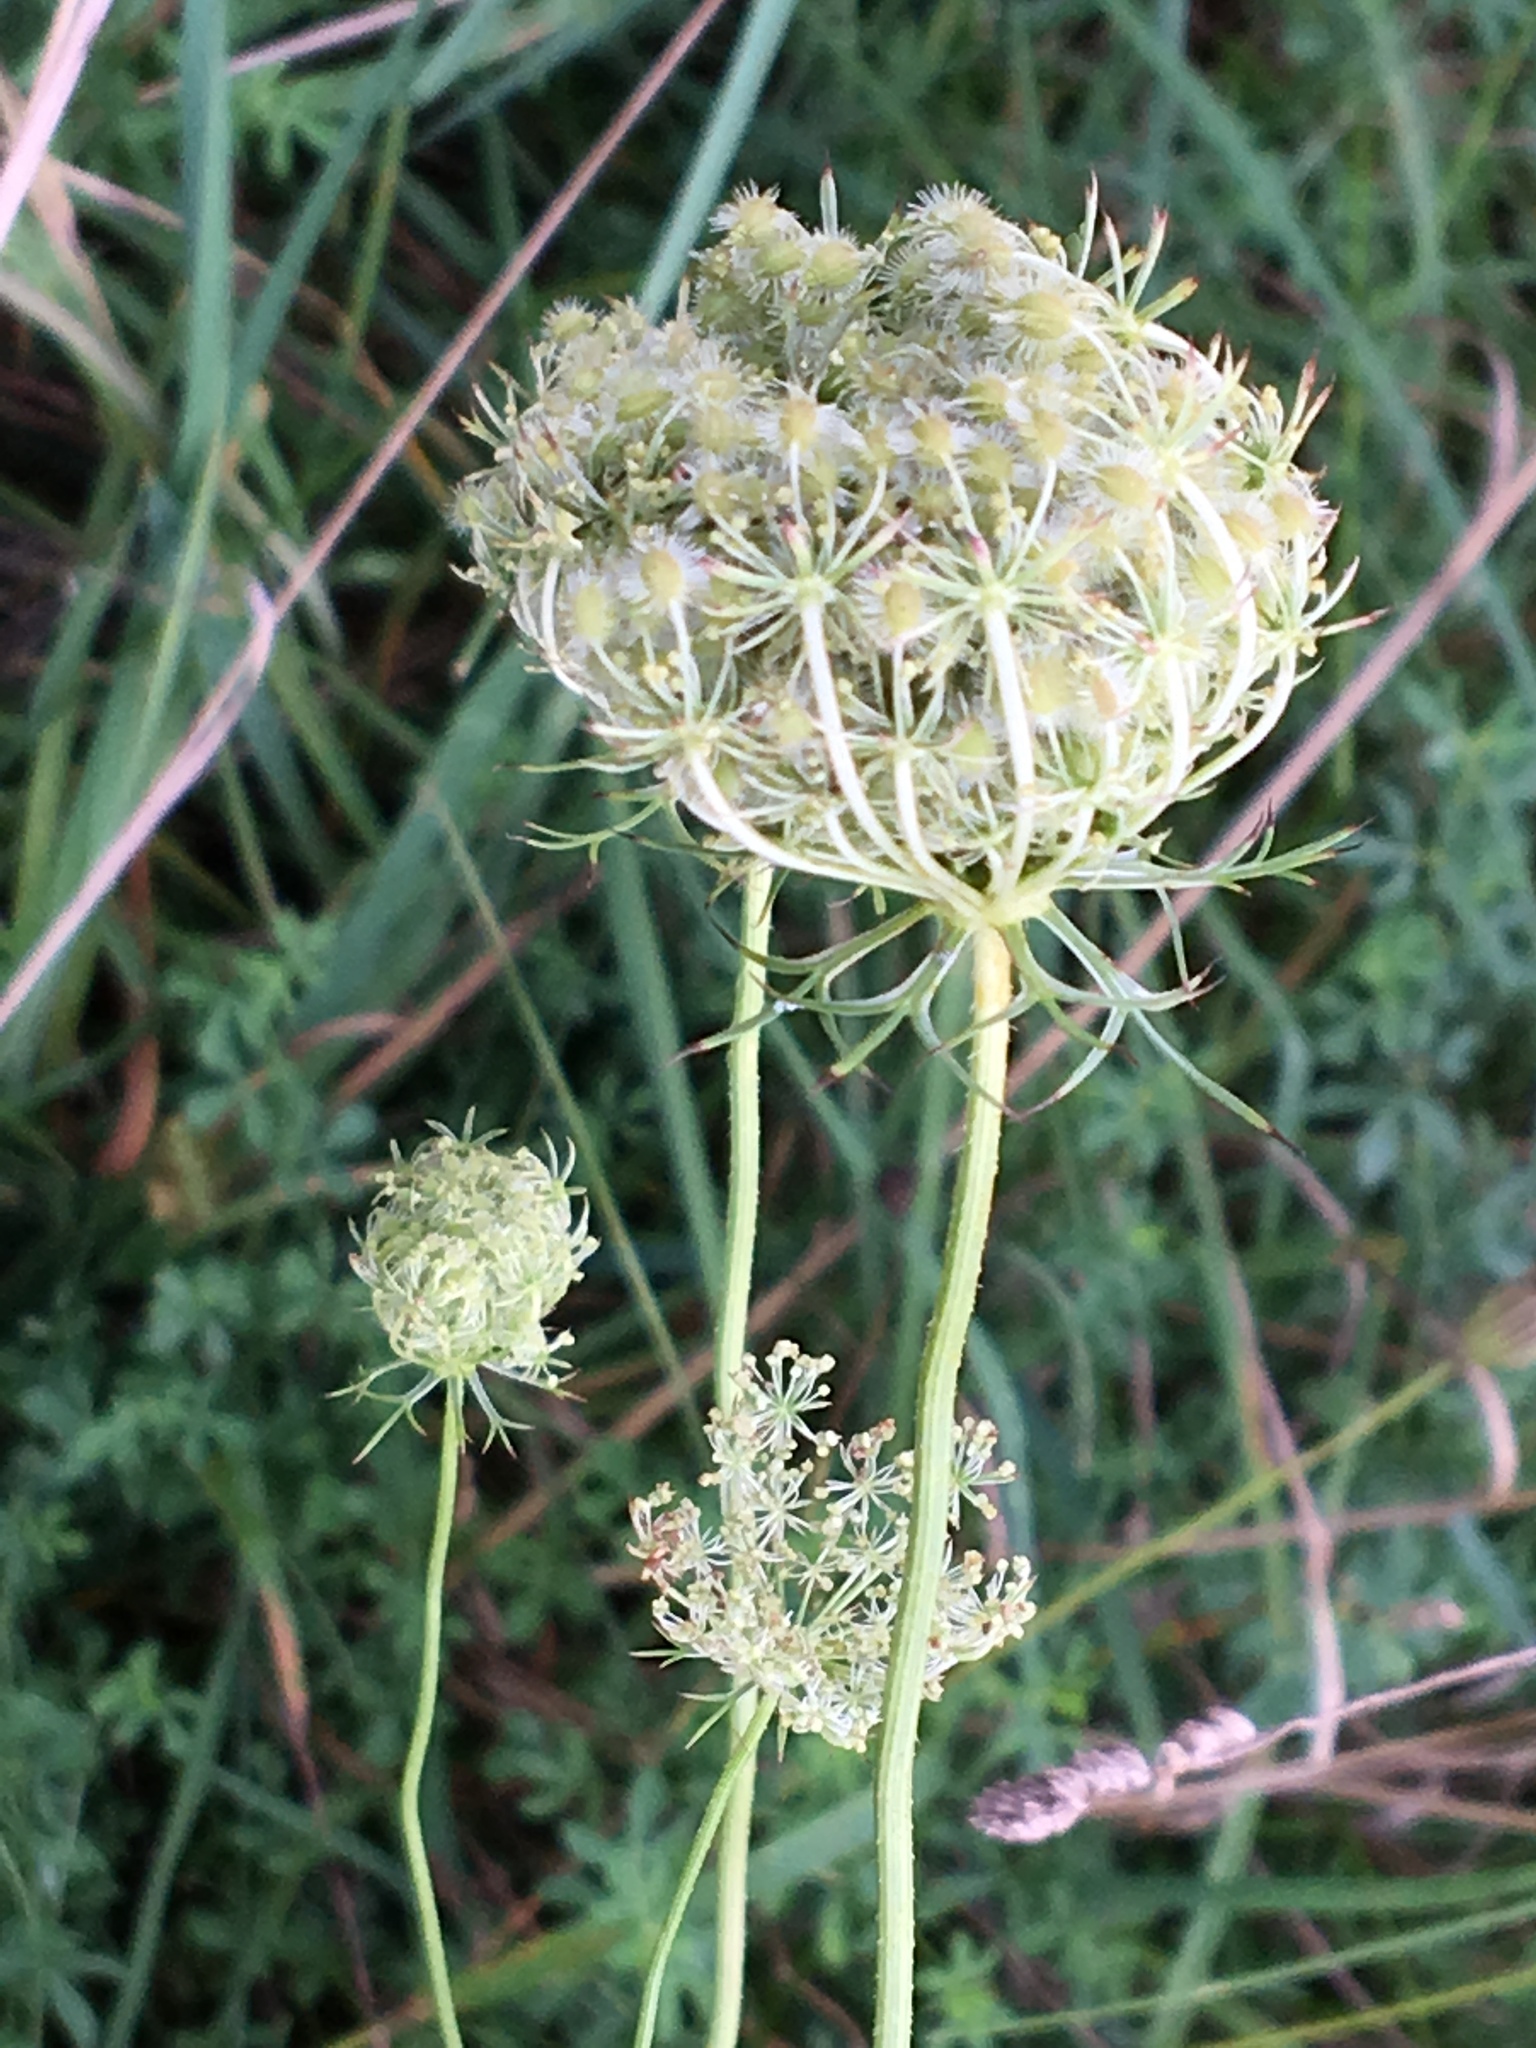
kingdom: Plantae
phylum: Tracheophyta
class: Magnoliopsida
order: Apiales
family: Apiaceae
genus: Daucus
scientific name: Daucus carota
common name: Wild carrot
